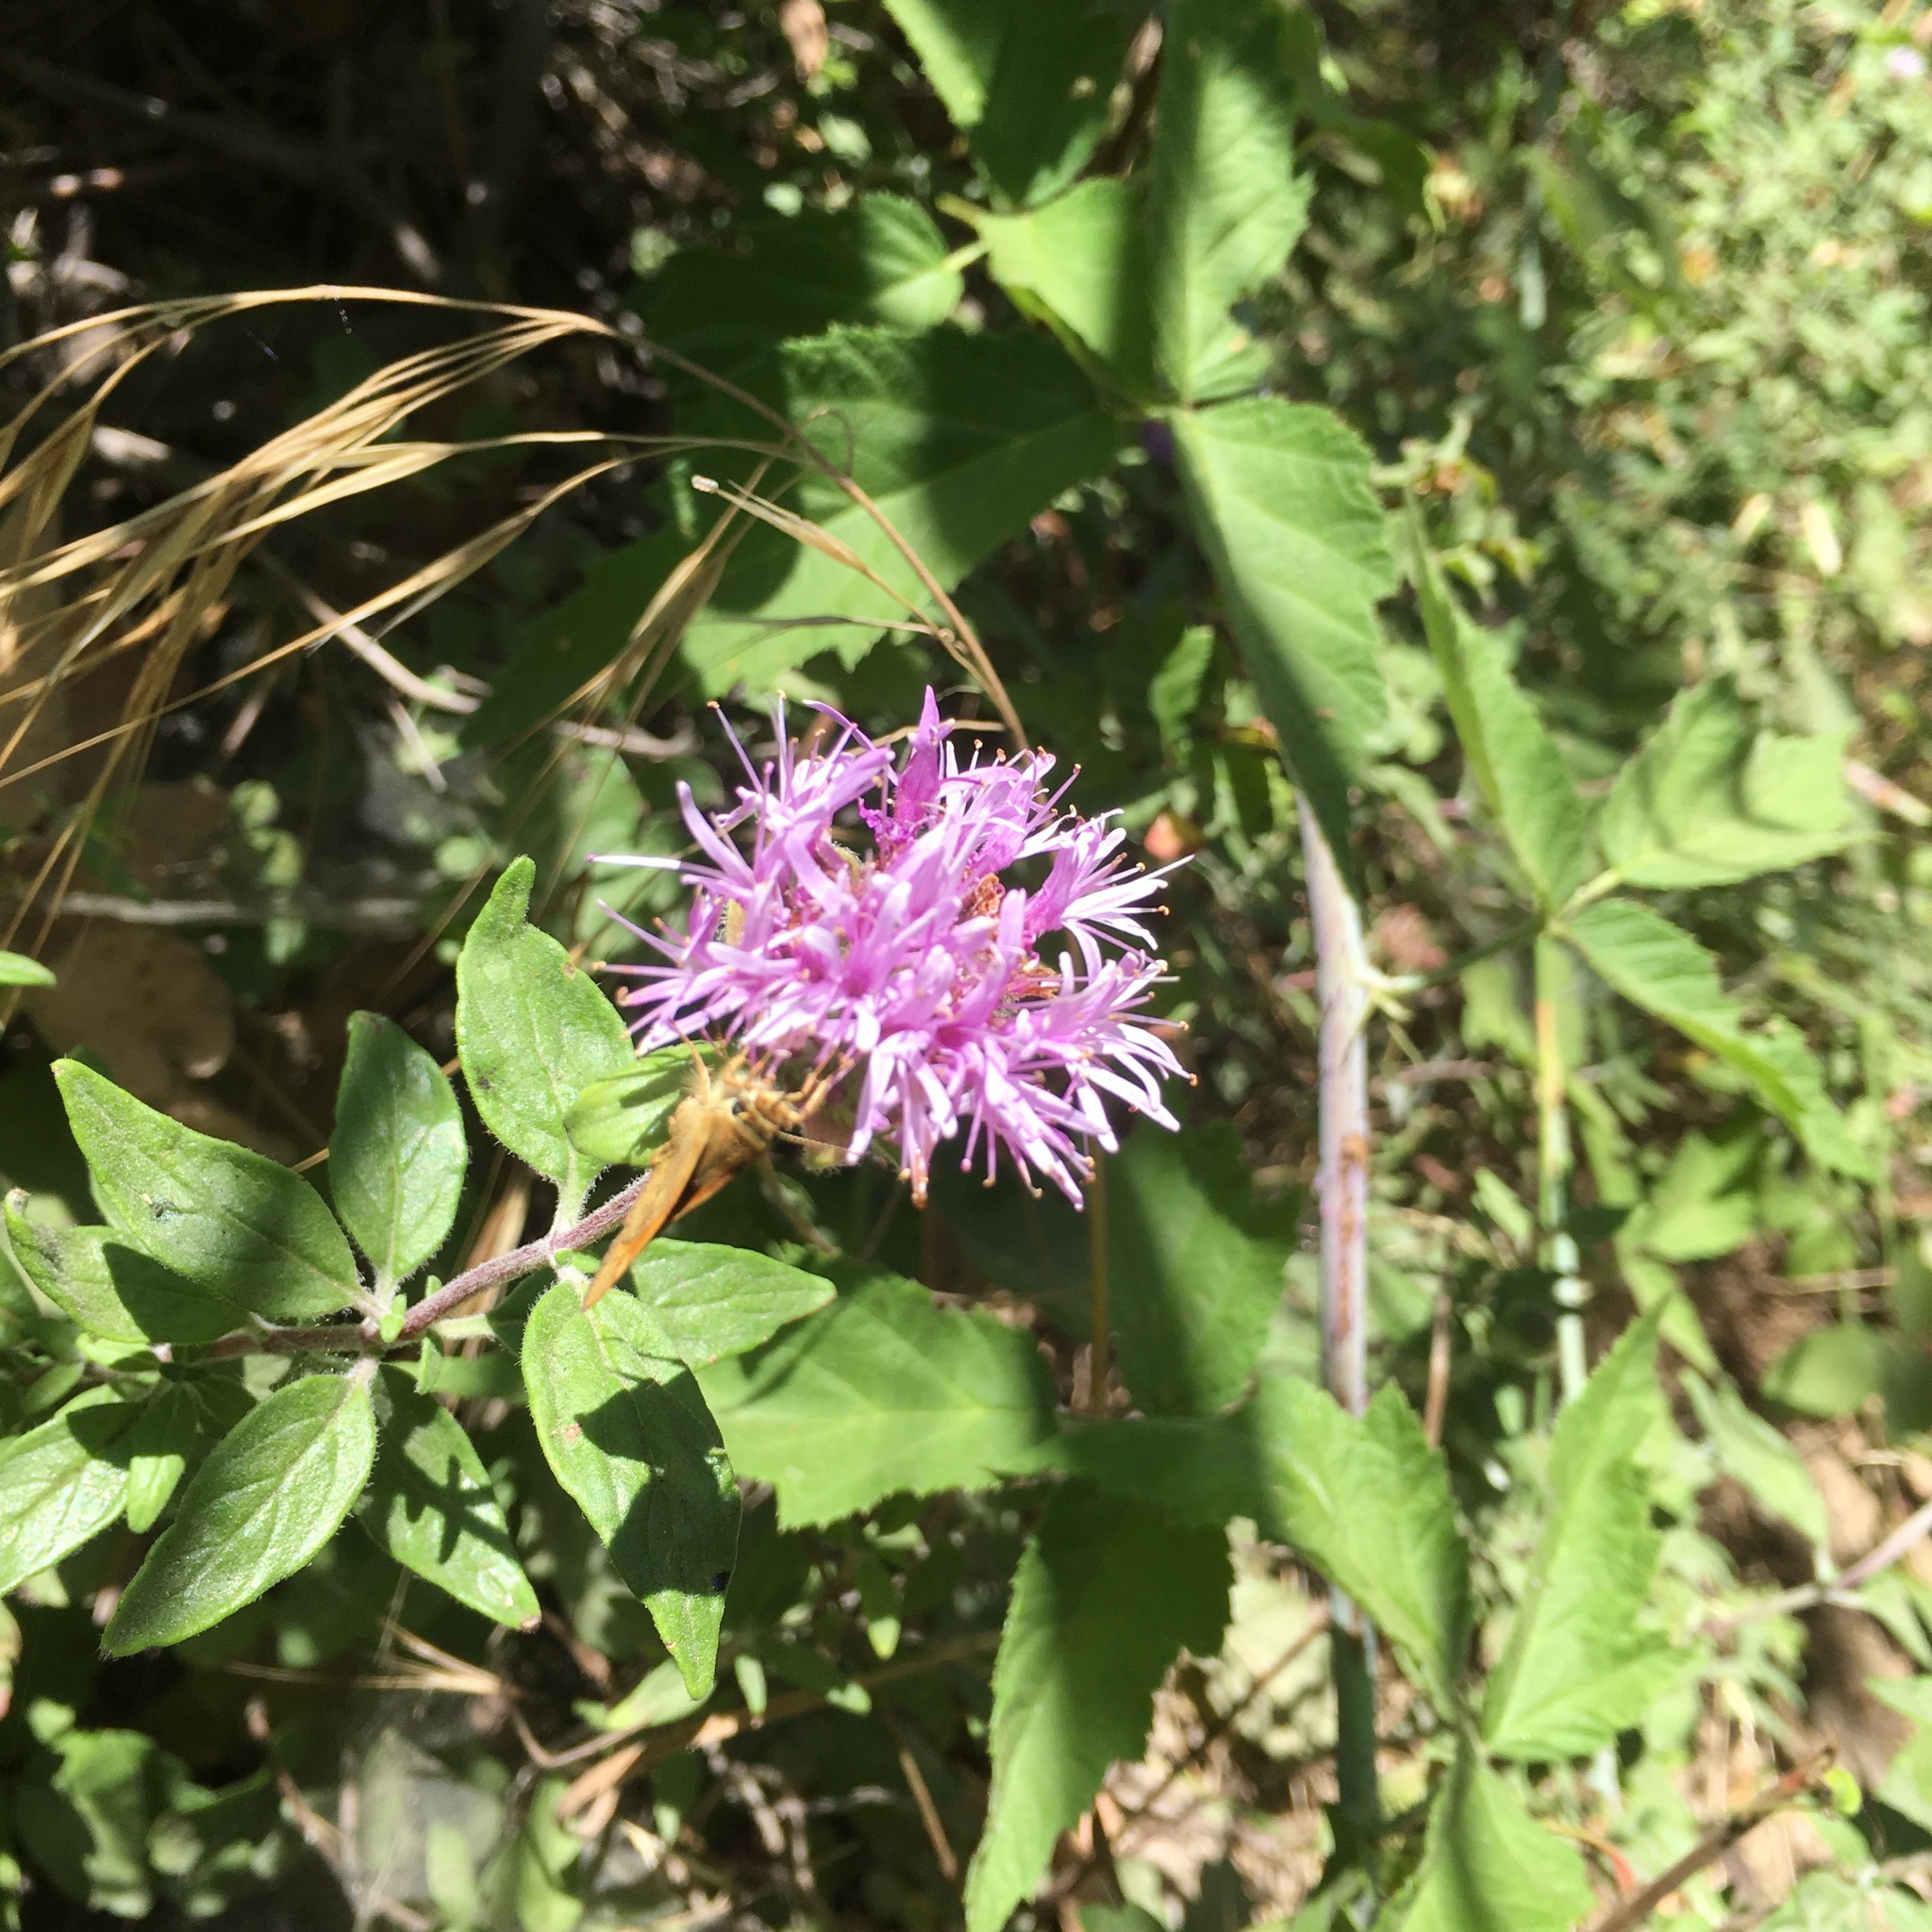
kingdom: Plantae
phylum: Tracheophyta
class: Magnoliopsida
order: Lamiales
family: Lamiaceae
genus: Monardella
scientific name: Monardella hypoleuca
